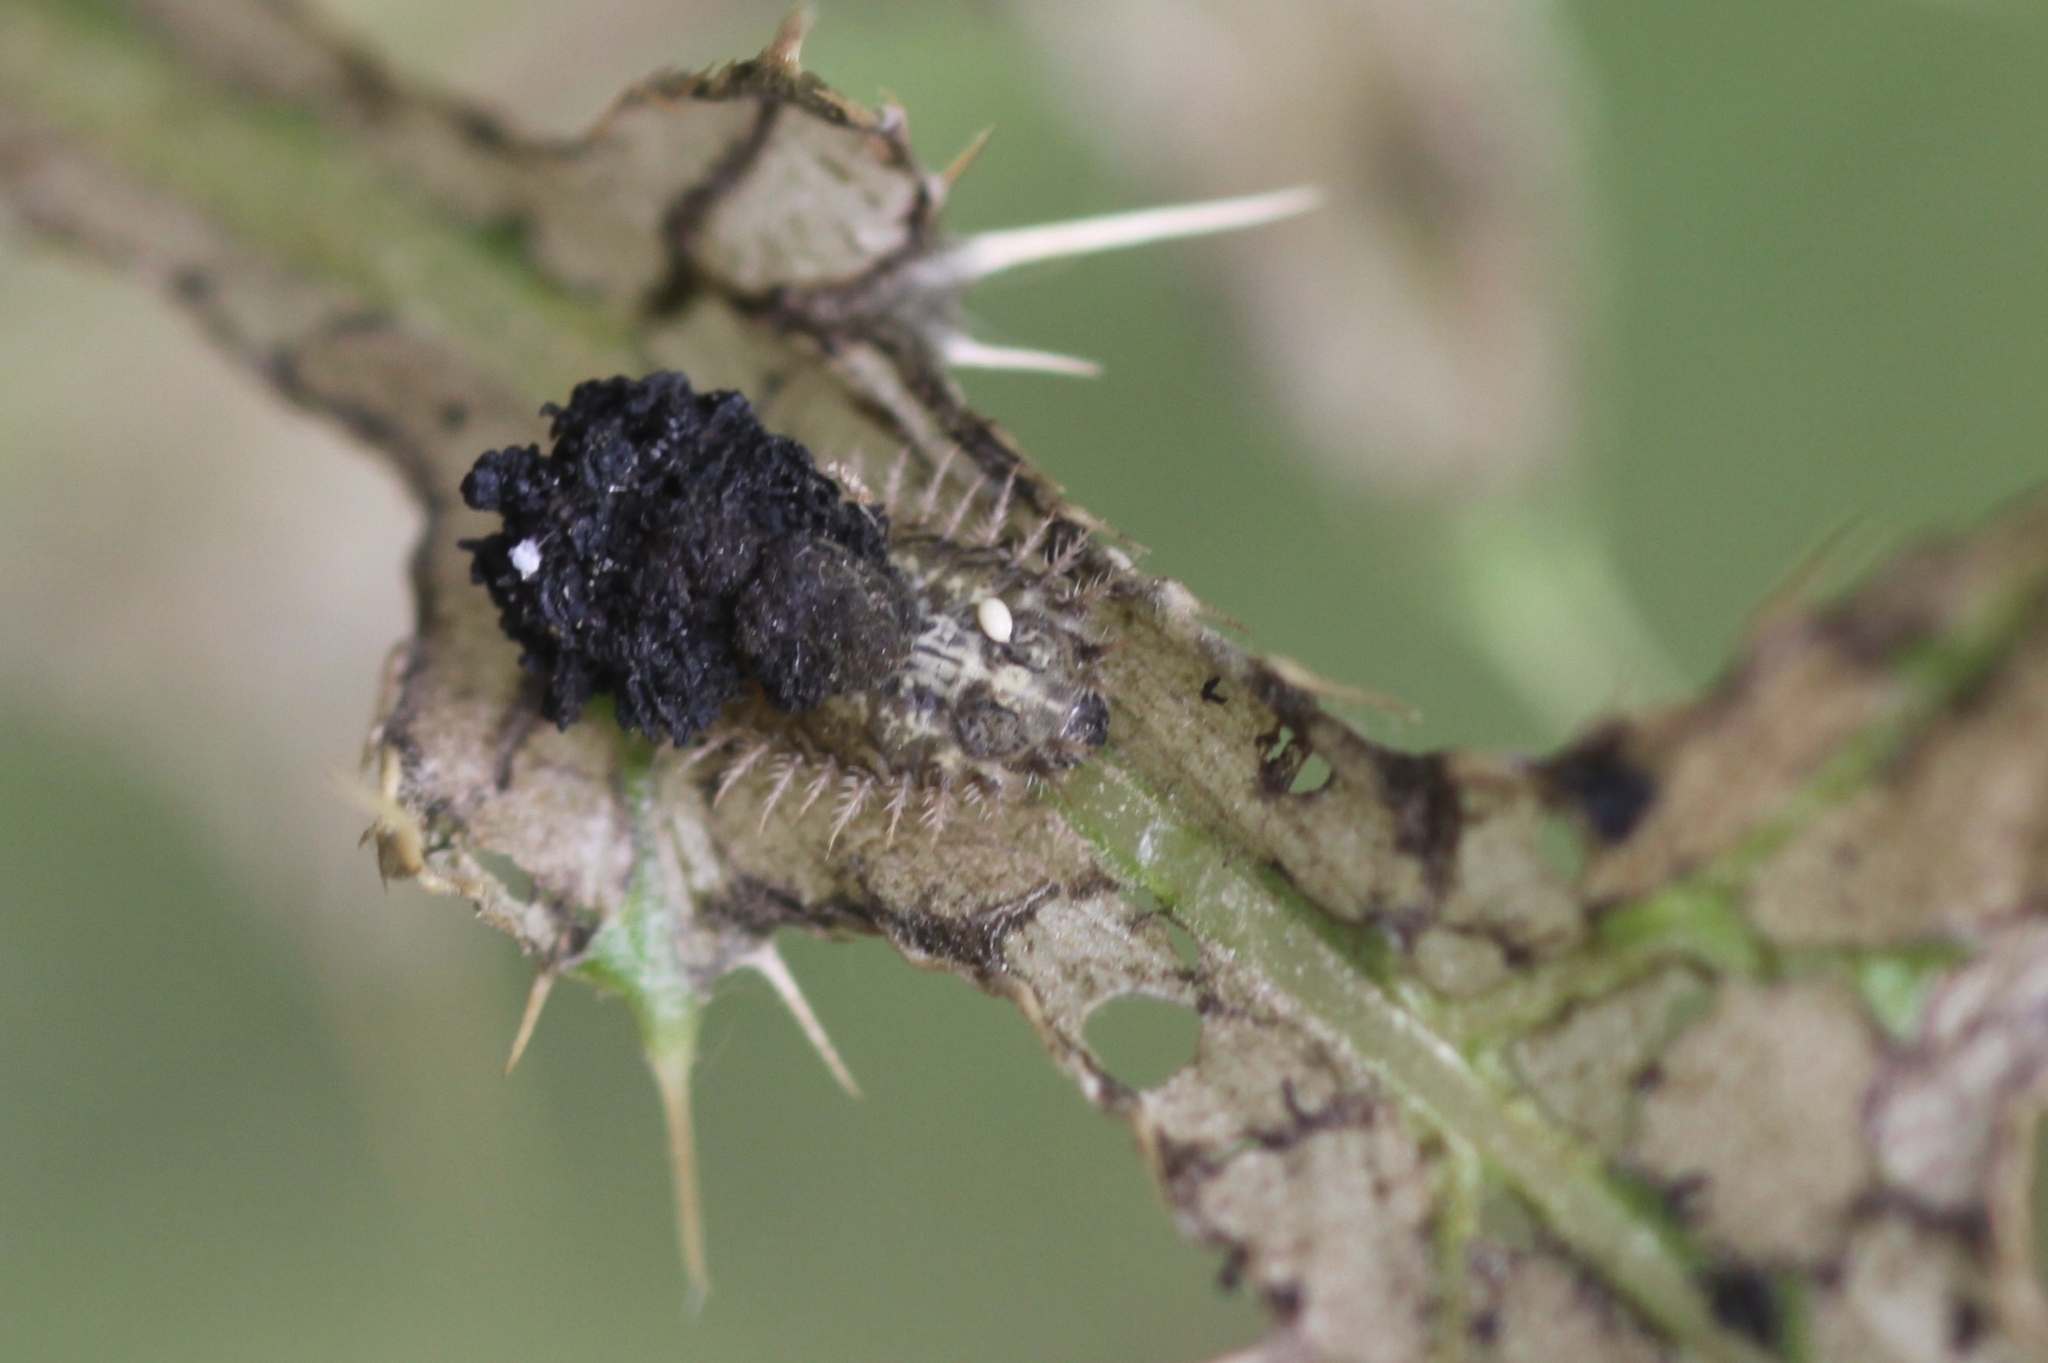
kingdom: Animalia
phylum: Arthropoda
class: Insecta
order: Coleoptera
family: Chrysomelidae
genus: Cassida
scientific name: Cassida rubiginosa
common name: Thistle tortoise beetle
